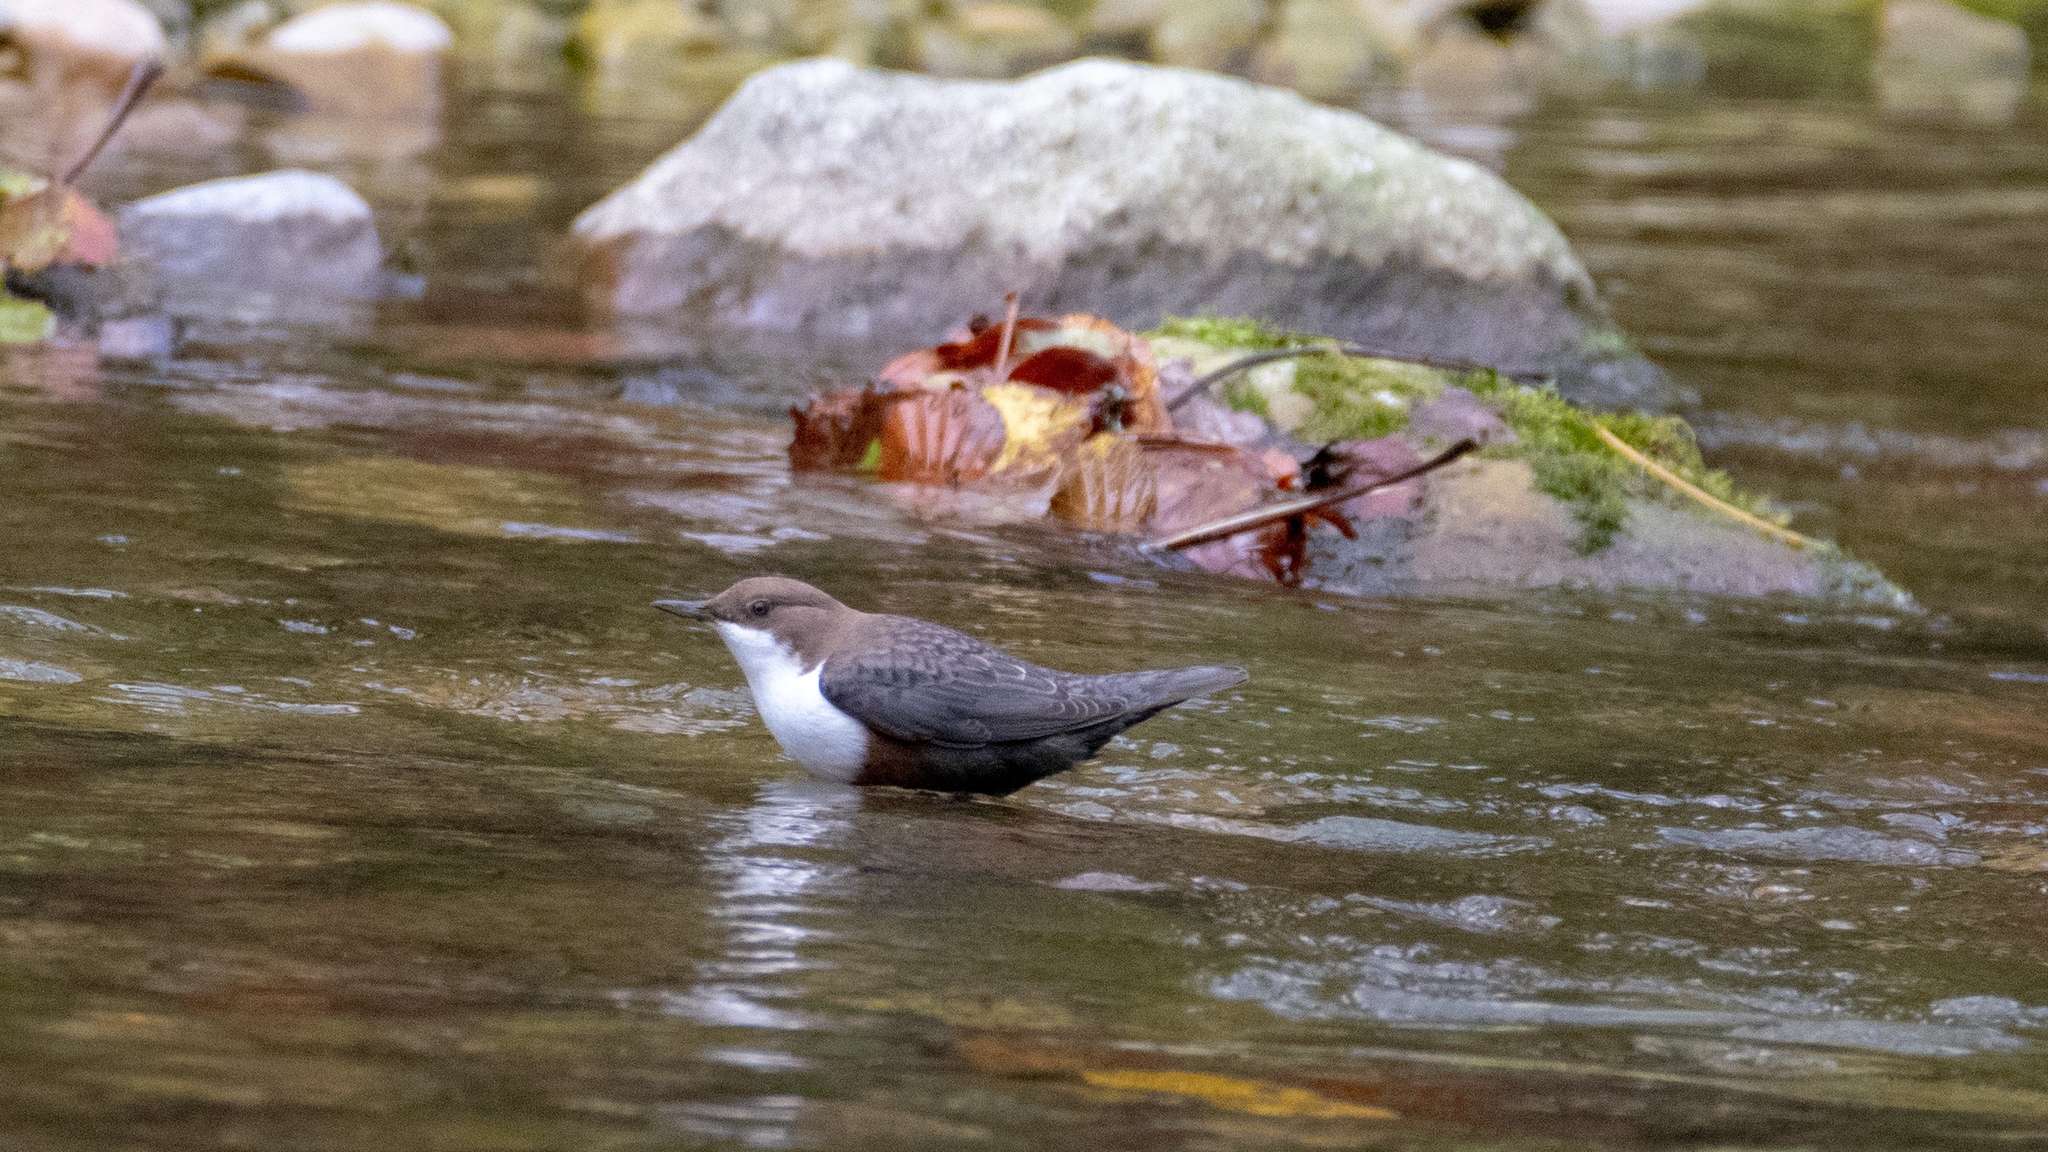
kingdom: Animalia
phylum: Chordata
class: Aves
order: Passeriformes
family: Cinclidae
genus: Cinclus
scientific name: Cinclus cinclus
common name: White-throated dipper
